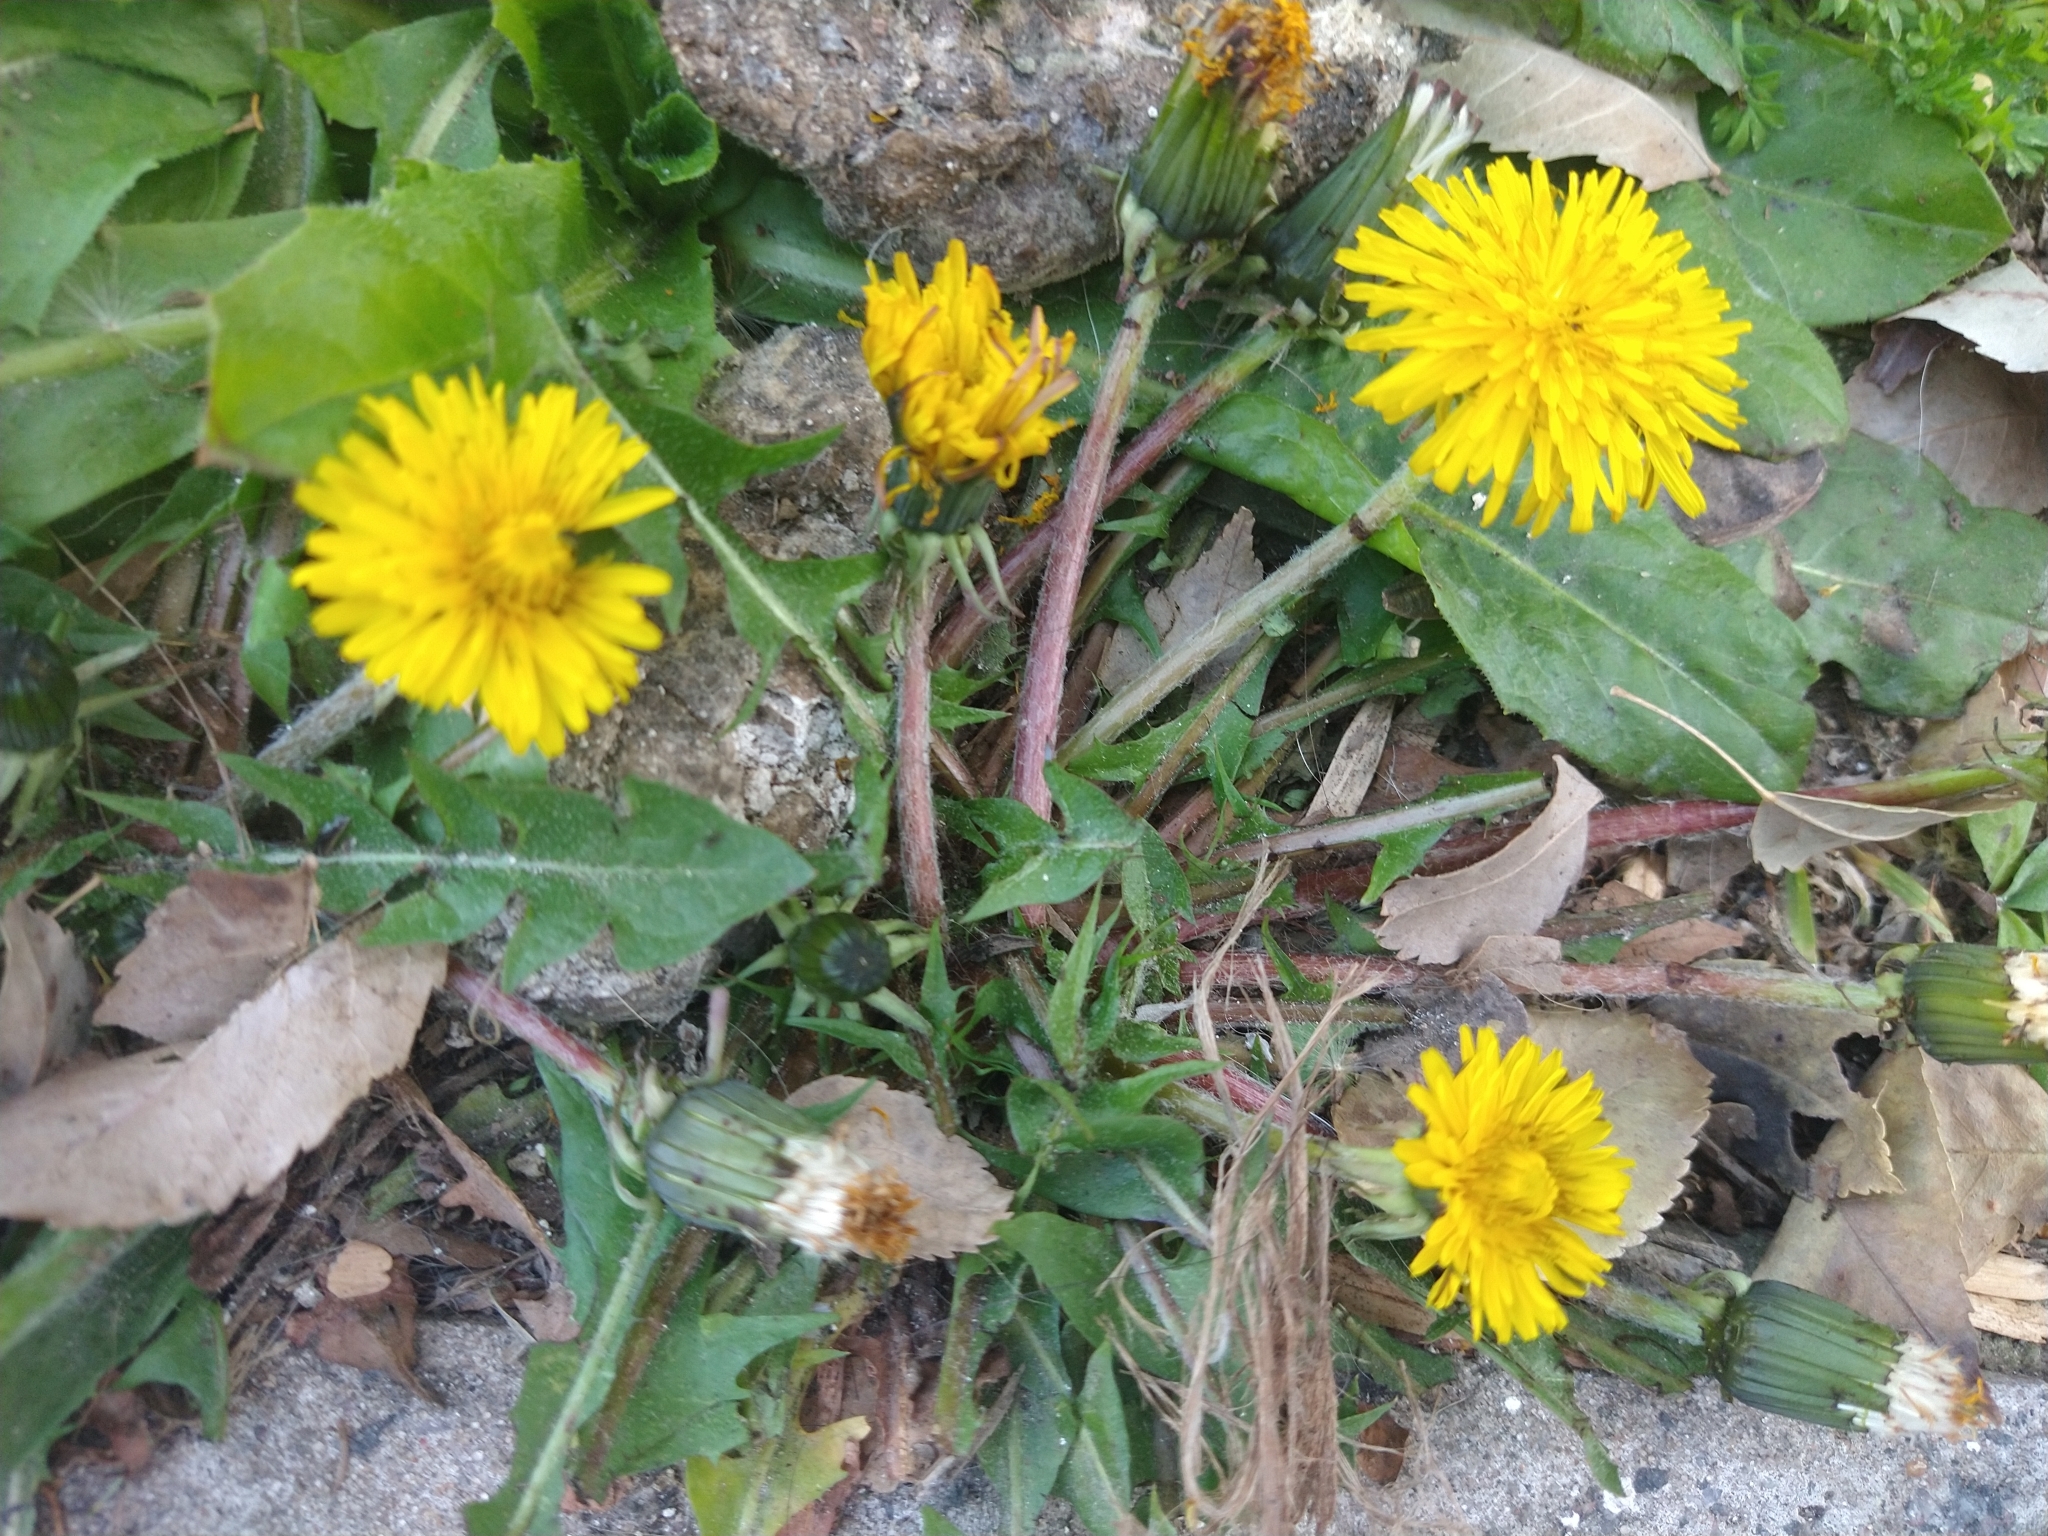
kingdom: Plantae
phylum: Tracheophyta
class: Magnoliopsida
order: Asterales
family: Asteraceae
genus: Taraxacum
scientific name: Taraxacum officinale
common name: Common dandelion
